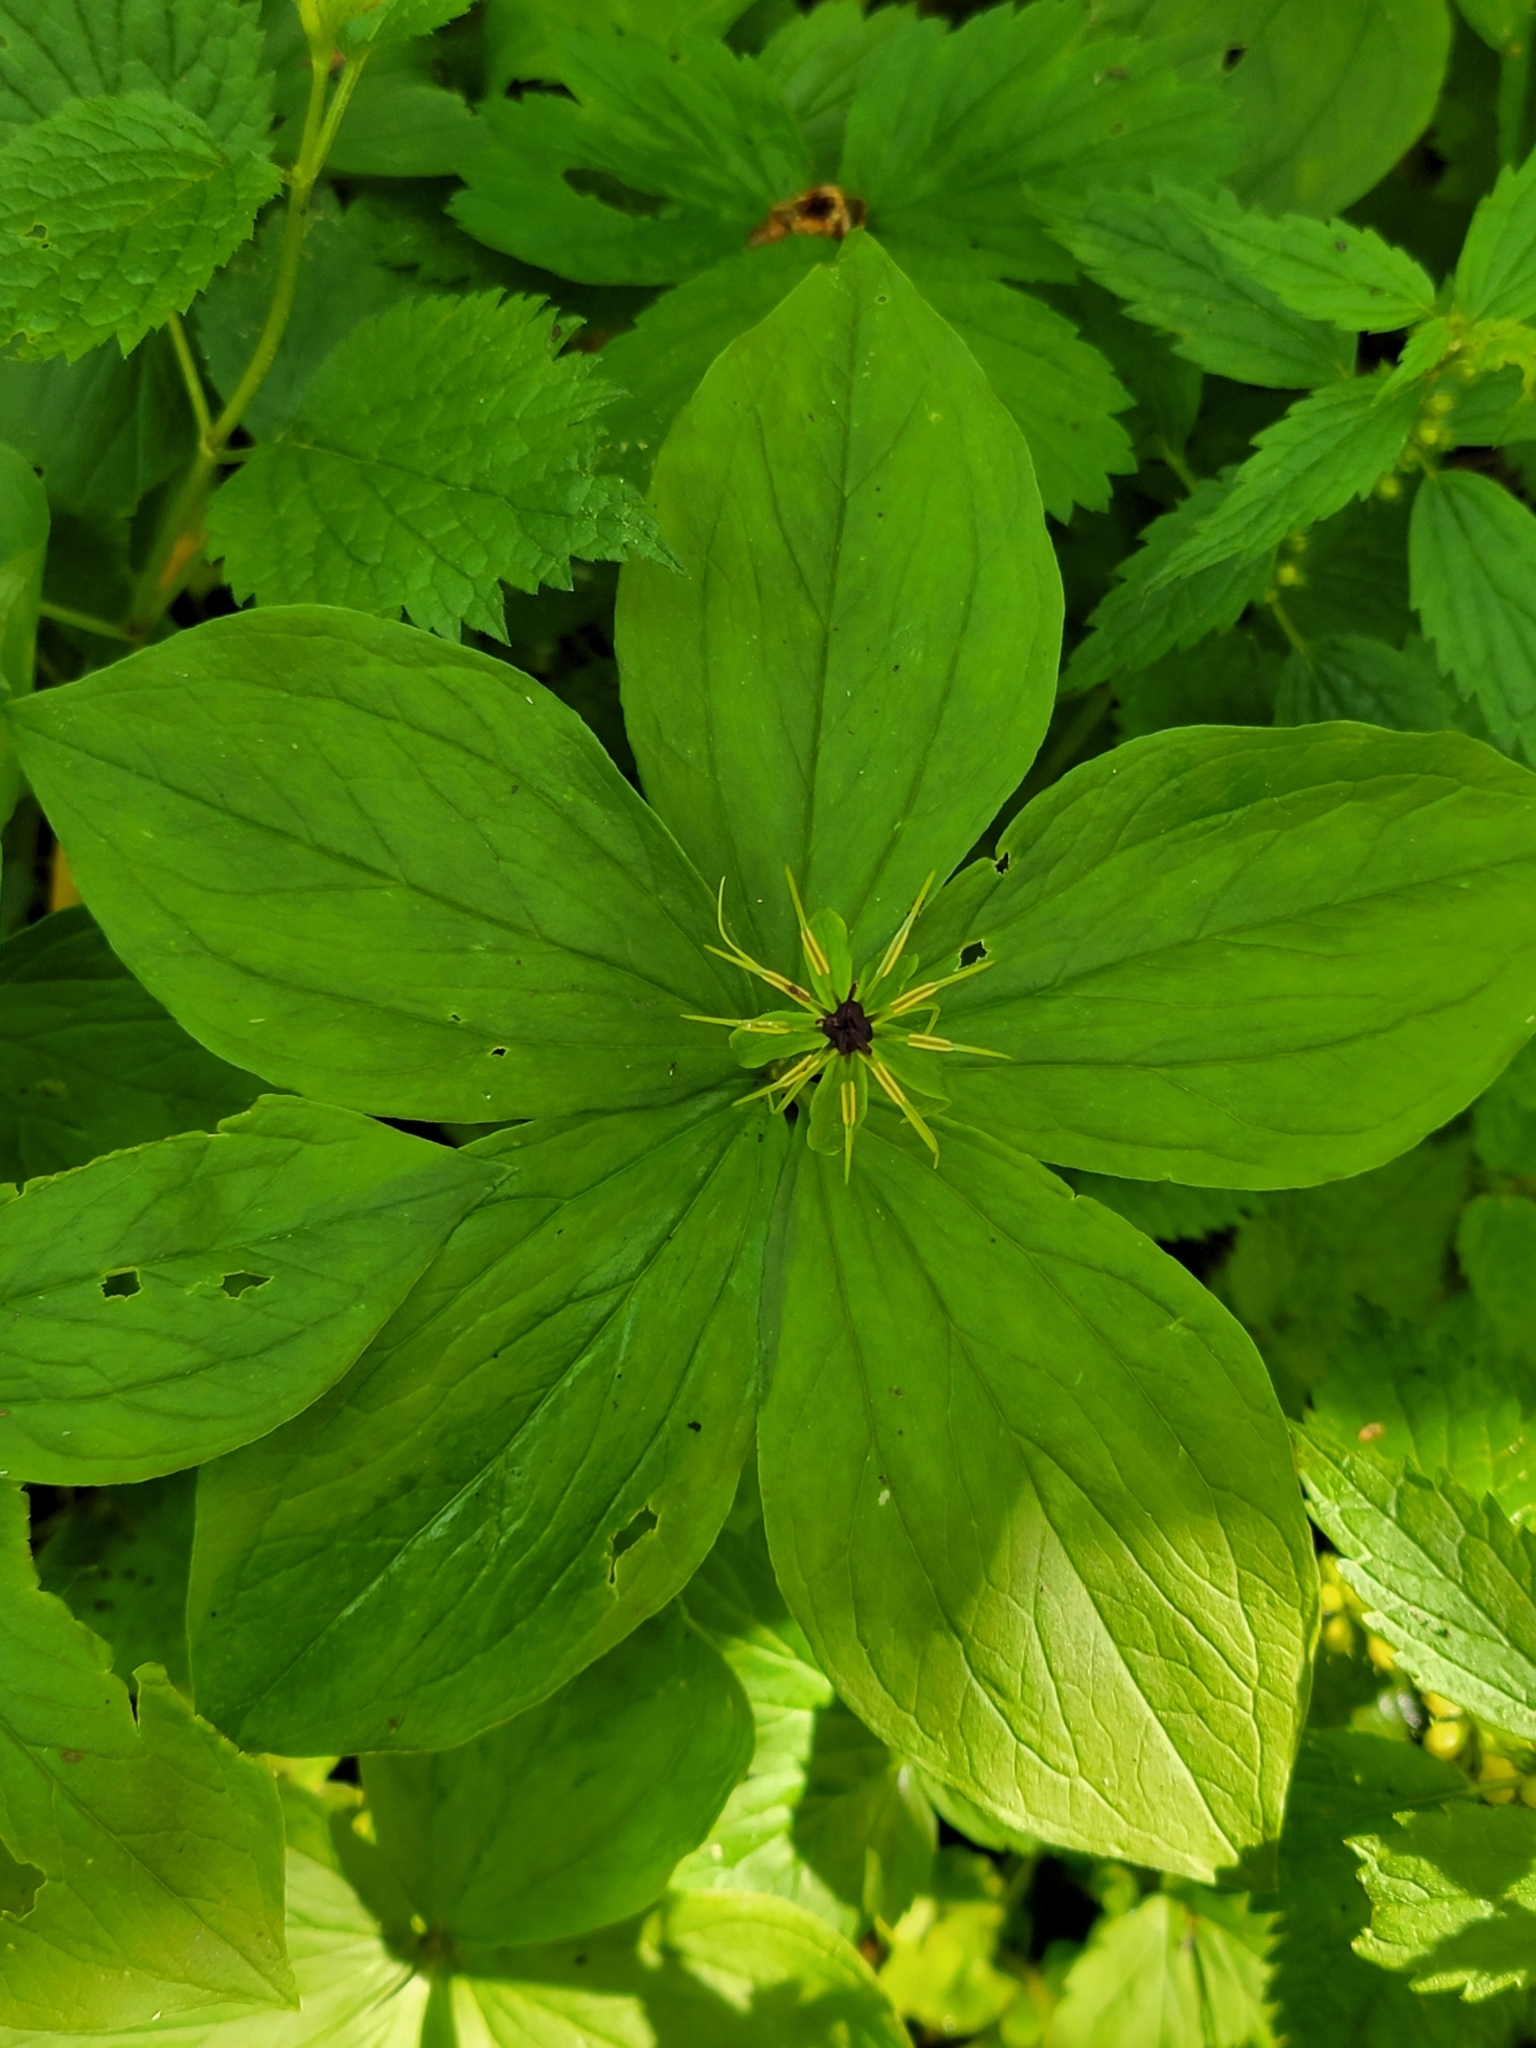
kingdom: Plantae
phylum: Tracheophyta
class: Liliopsida
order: Liliales
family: Melanthiaceae
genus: Paris
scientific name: Paris quadrifolia
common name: Herb-paris
